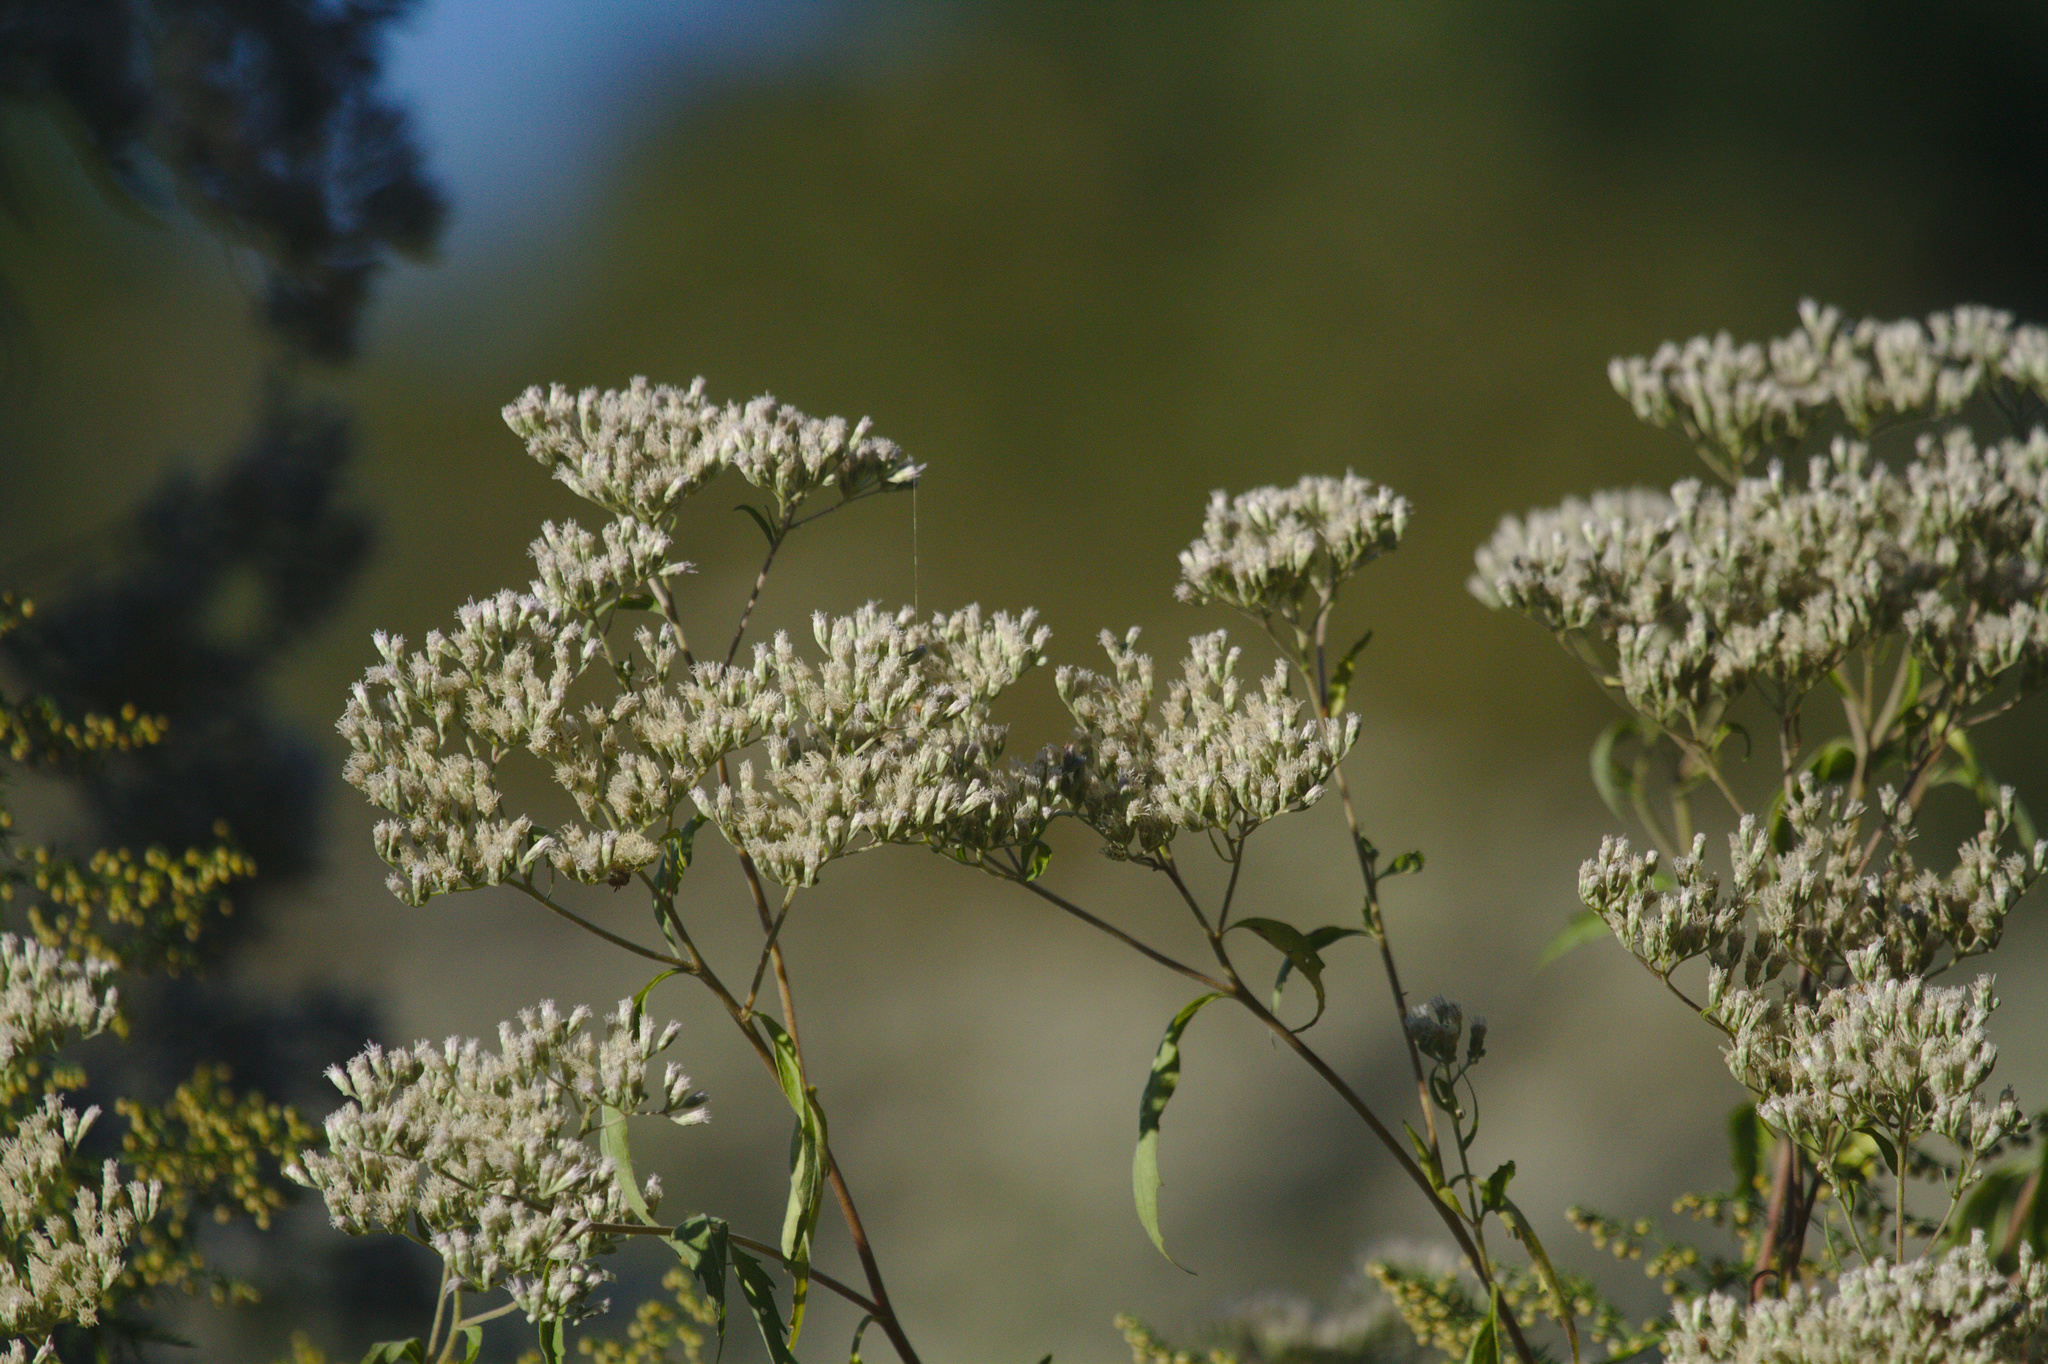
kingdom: Plantae
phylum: Tracheophyta
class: Magnoliopsida
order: Asterales
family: Asteraceae
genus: Eupatorium
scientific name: Eupatorium serotinum
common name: Late boneset
